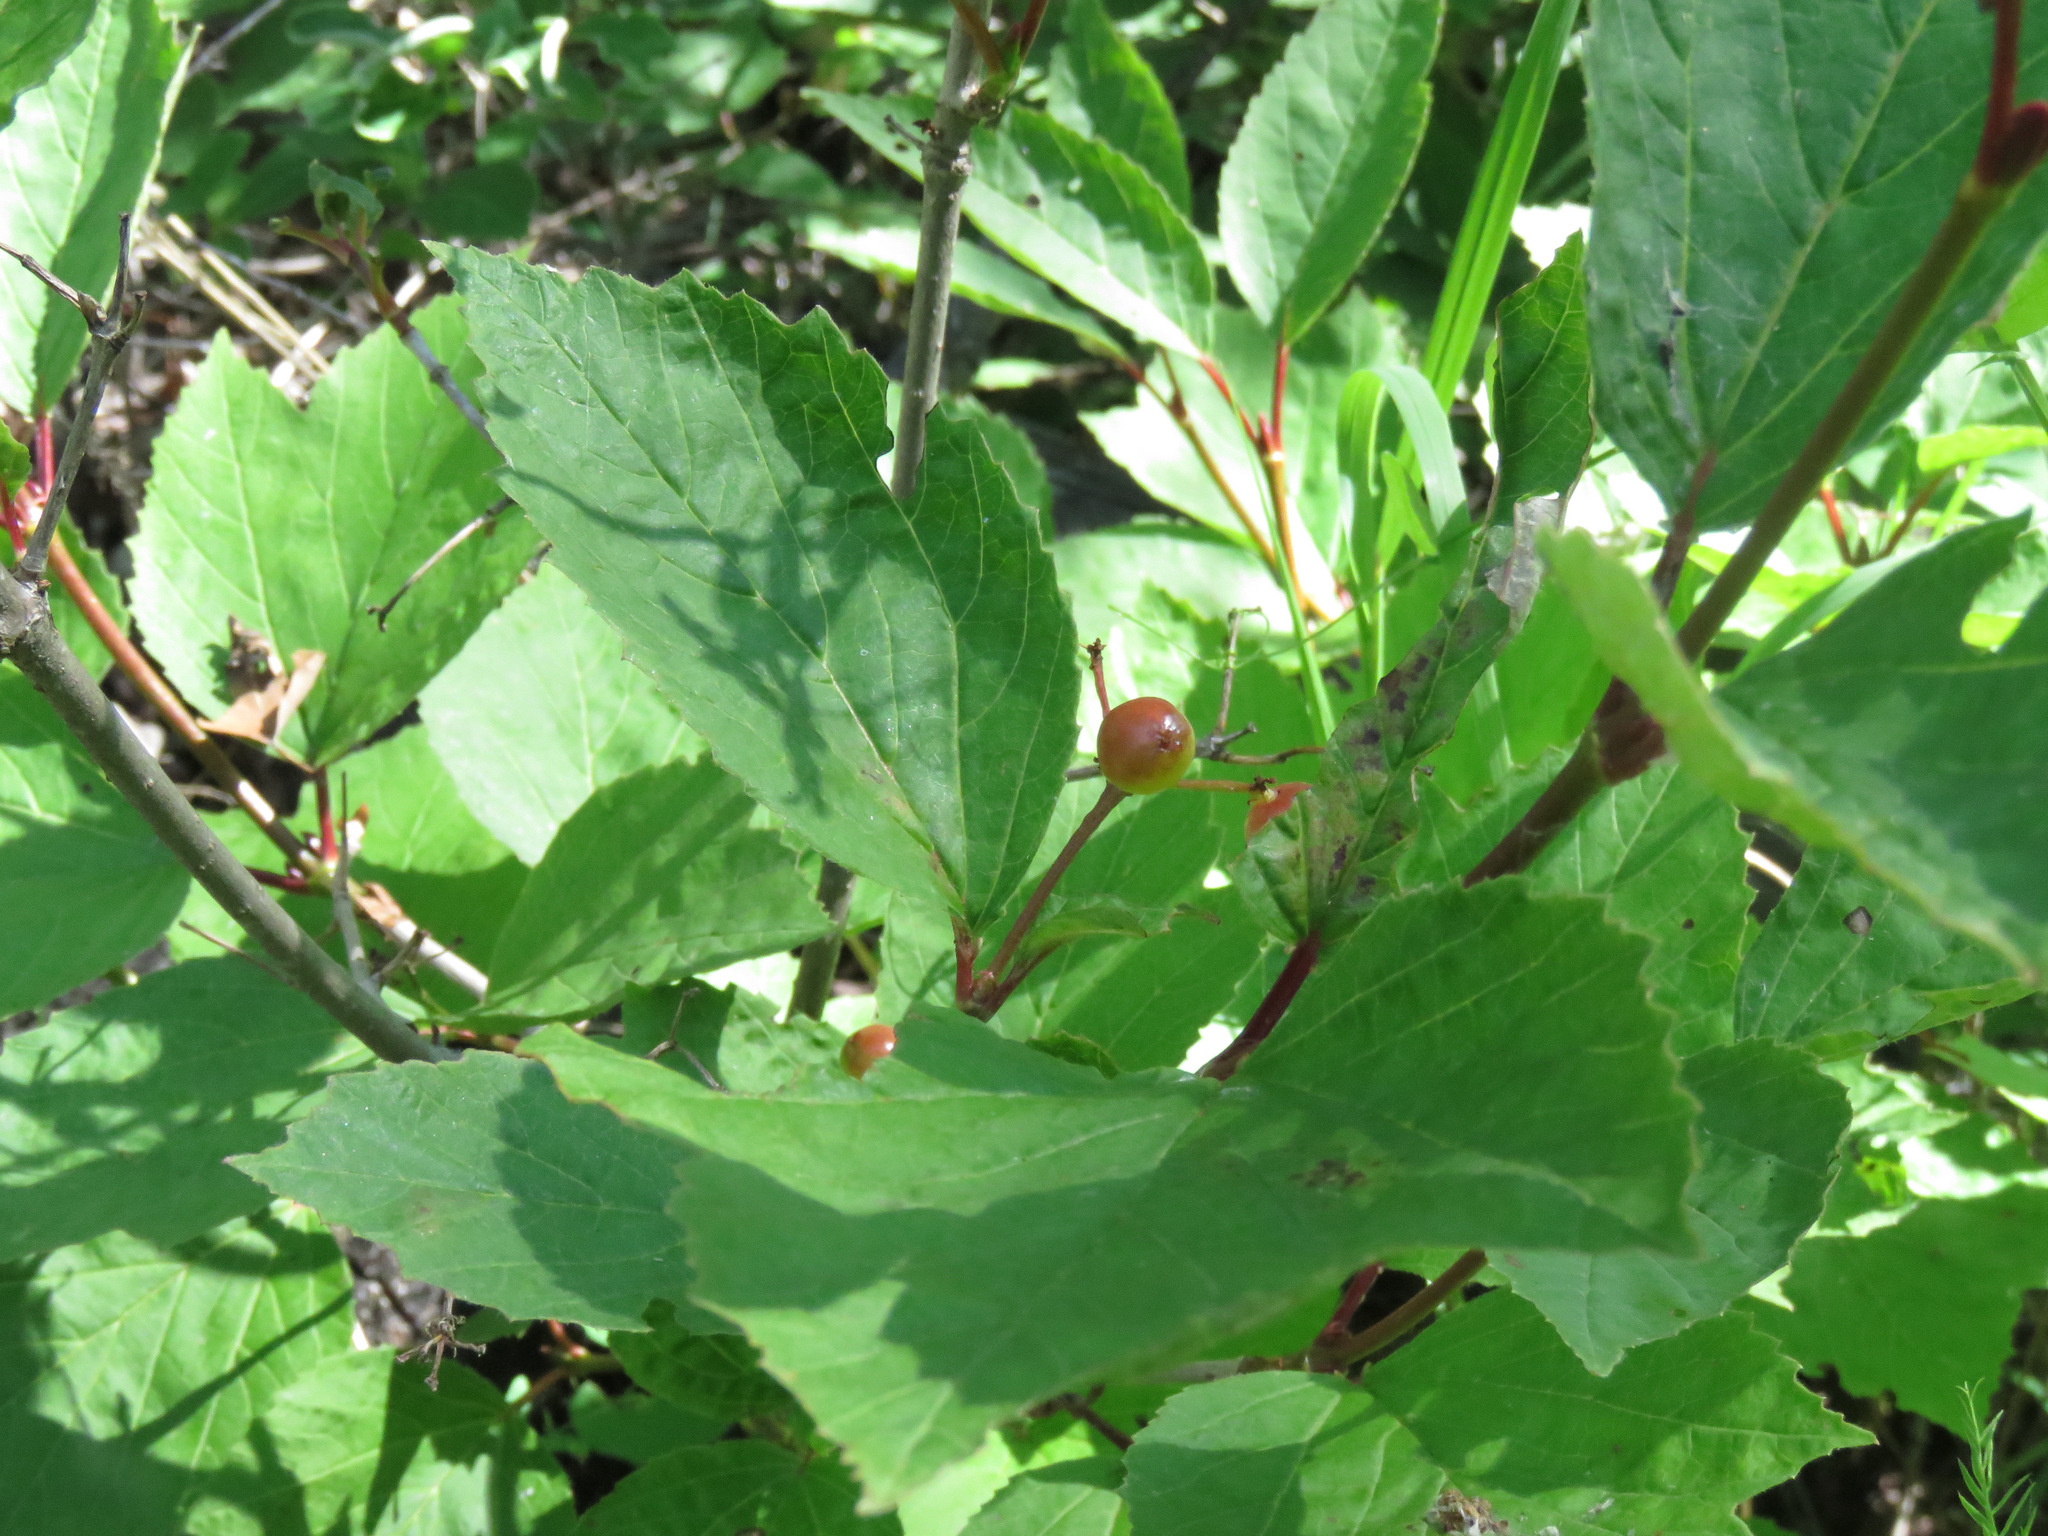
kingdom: Plantae
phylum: Tracheophyta
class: Magnoliopsida
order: Dipsacales
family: Viburnaceae
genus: Viburnum
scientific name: Viburnum edule
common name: Mooseberry
